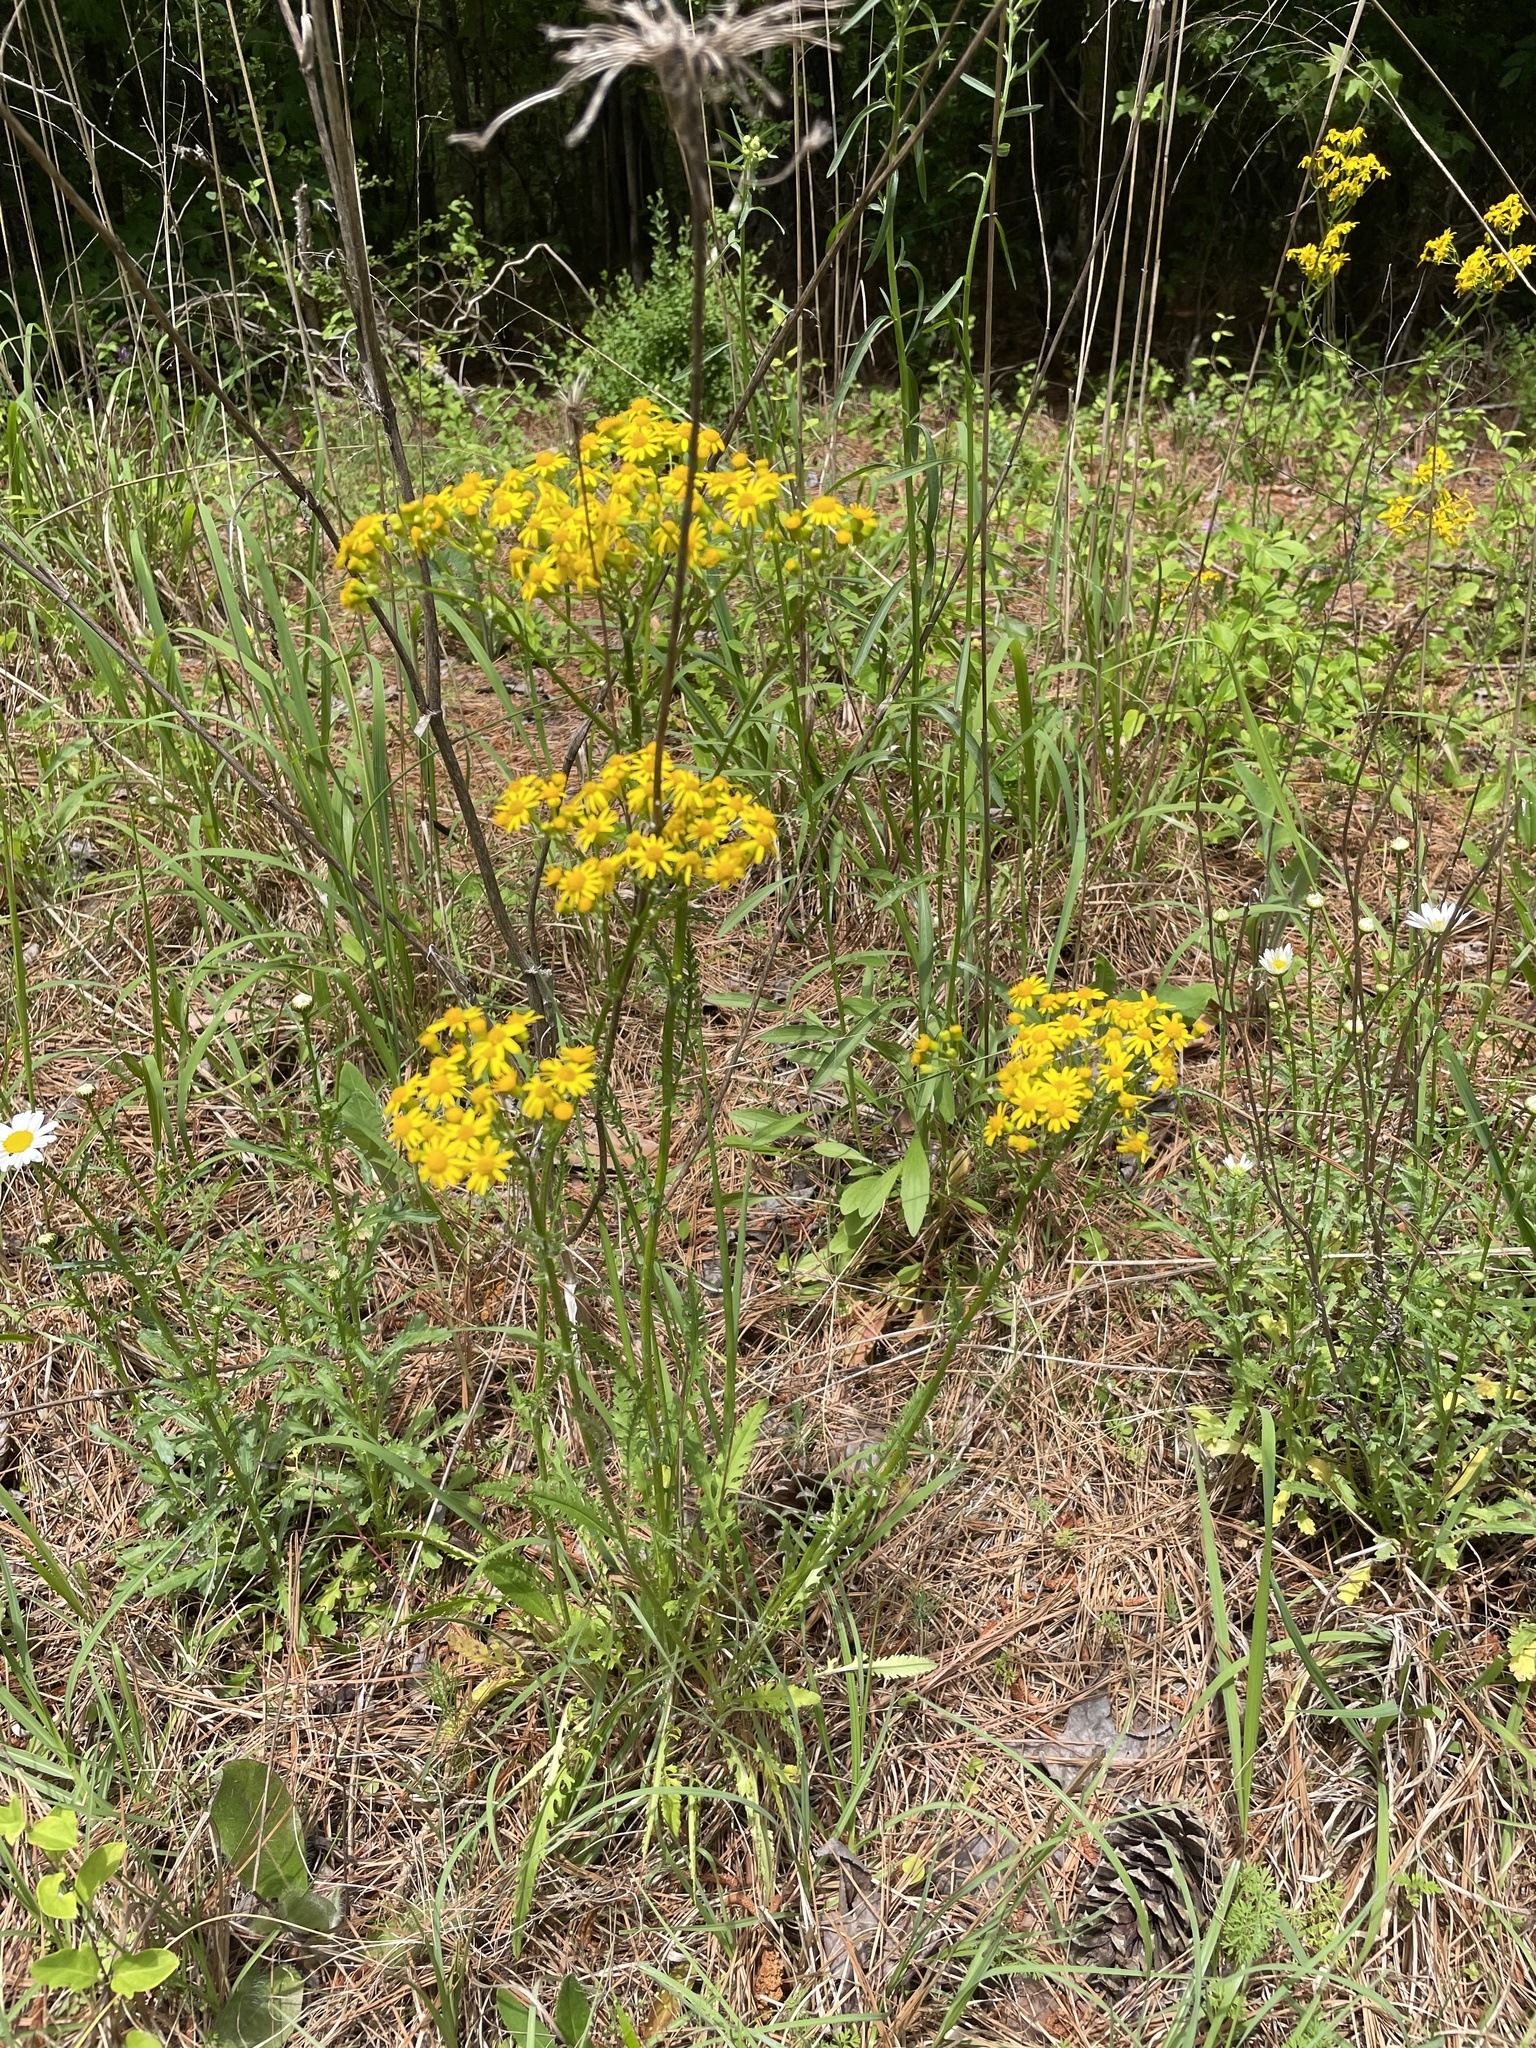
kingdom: Plantae
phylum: Tracheophyta
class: Magnoliopsida
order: Asterales
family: Asteraceae
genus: Packera
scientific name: Packera anonyma
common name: Small ragwort
